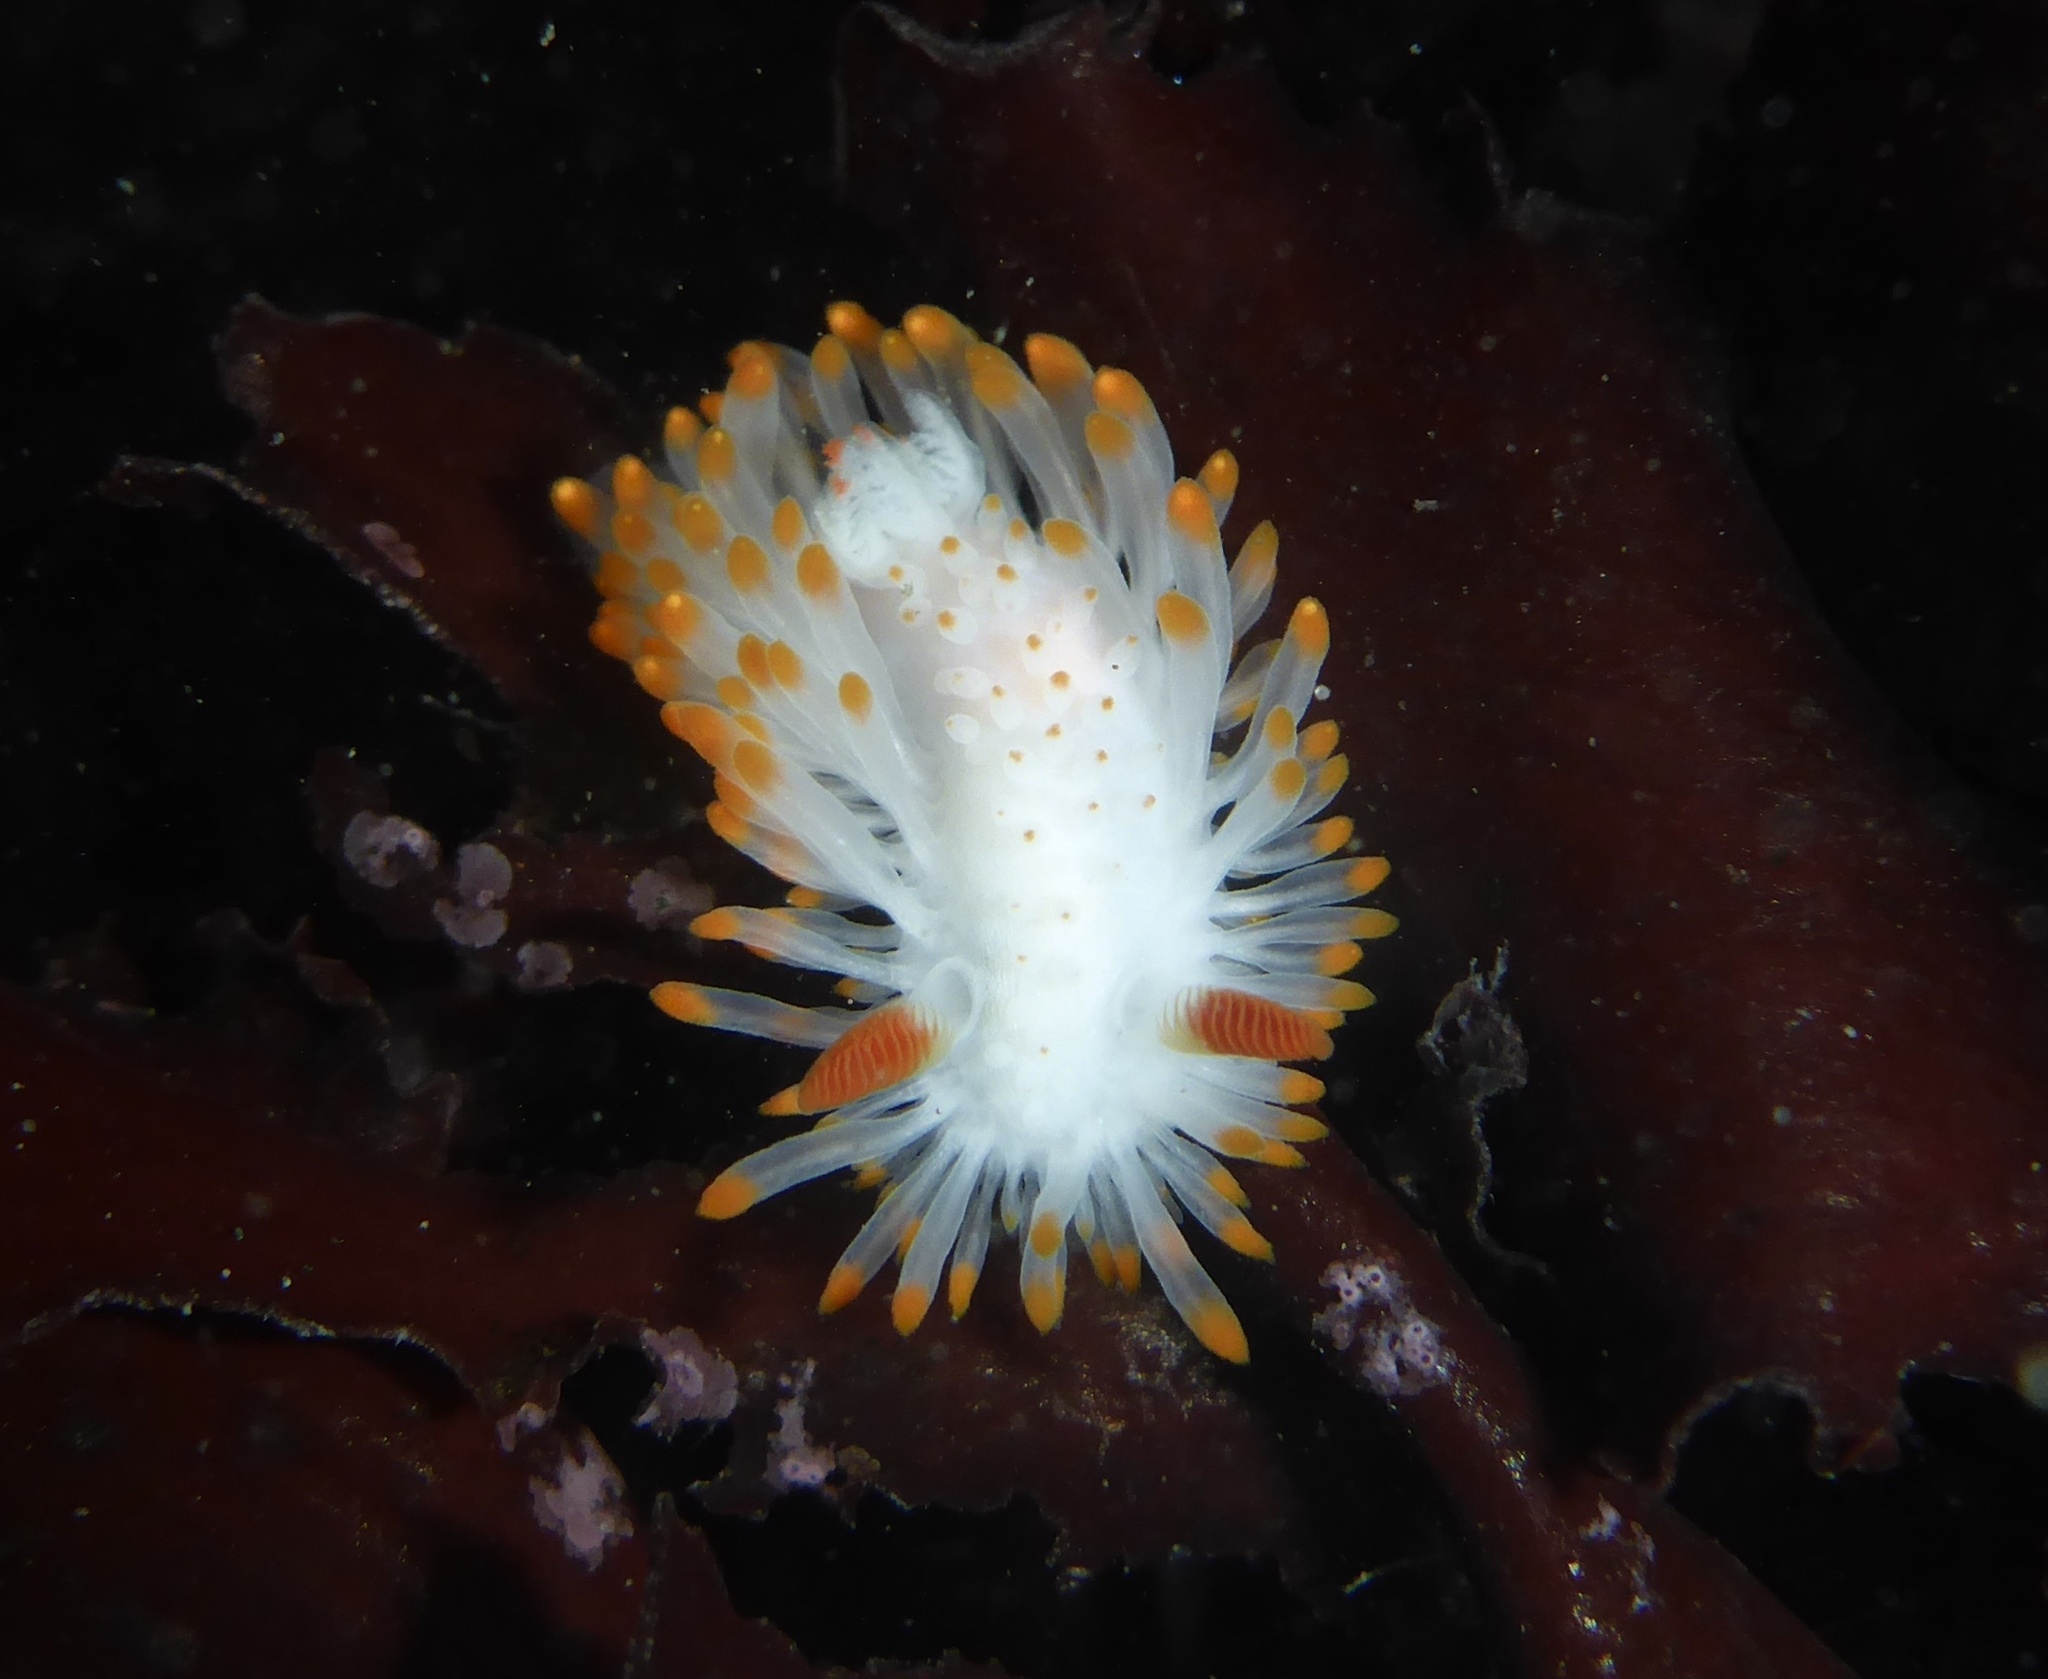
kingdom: Animalia
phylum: Mollusca
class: Gastropoda
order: Nudibranchia
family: Polyceridae
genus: Limacia
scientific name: Limacia cockerelli
